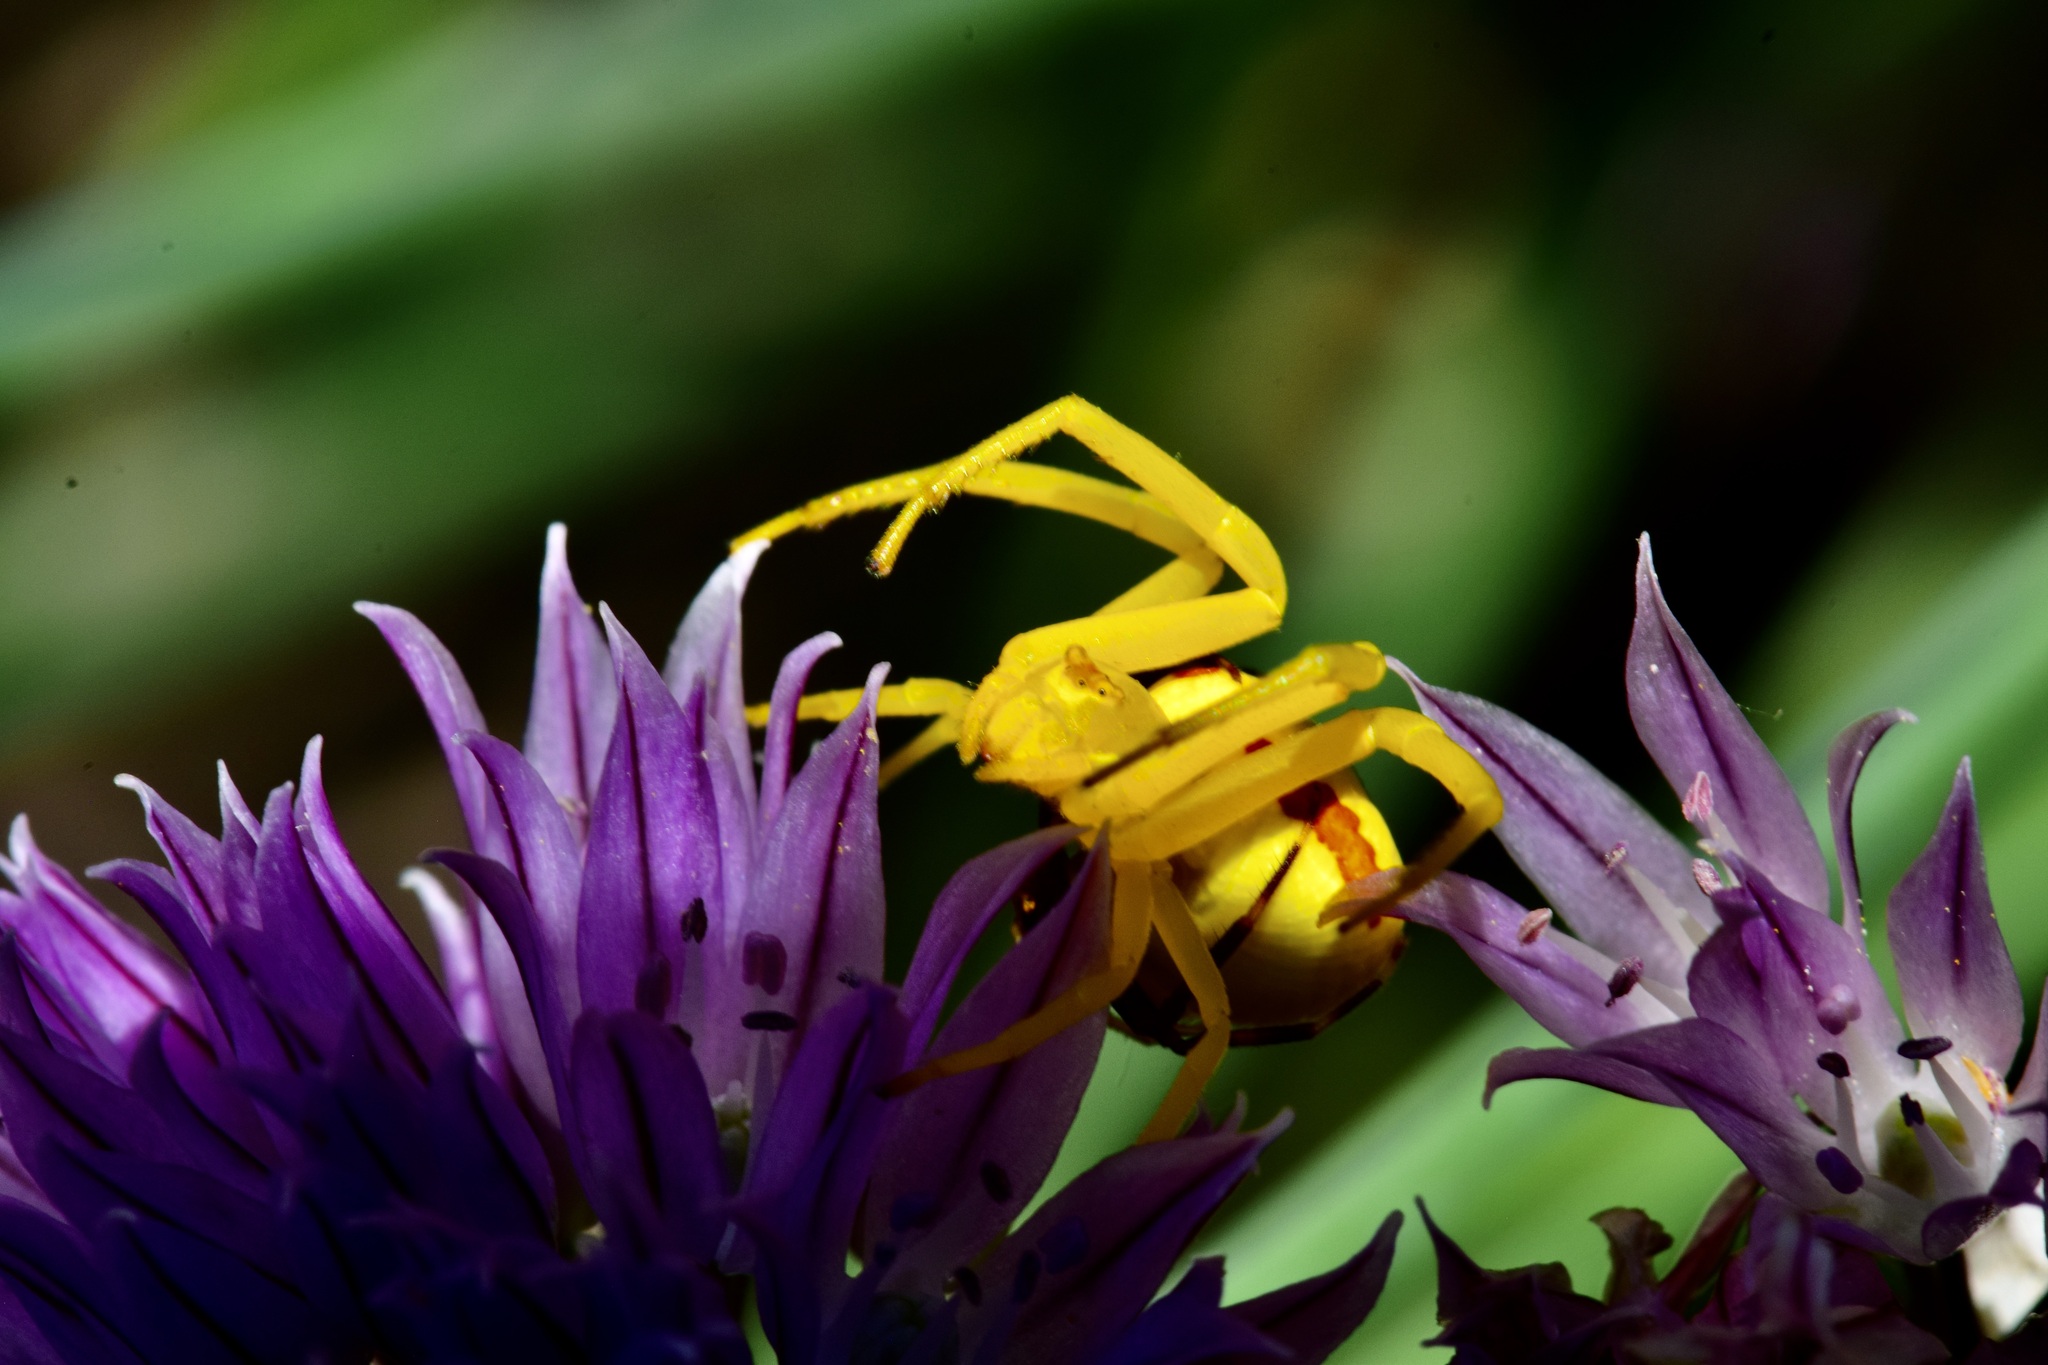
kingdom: Animalia
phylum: Arthropoda
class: Arachnida
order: Araneae
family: Thomisidae
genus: Misumena
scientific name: Misumena vatia
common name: Goldenrod crab spider
